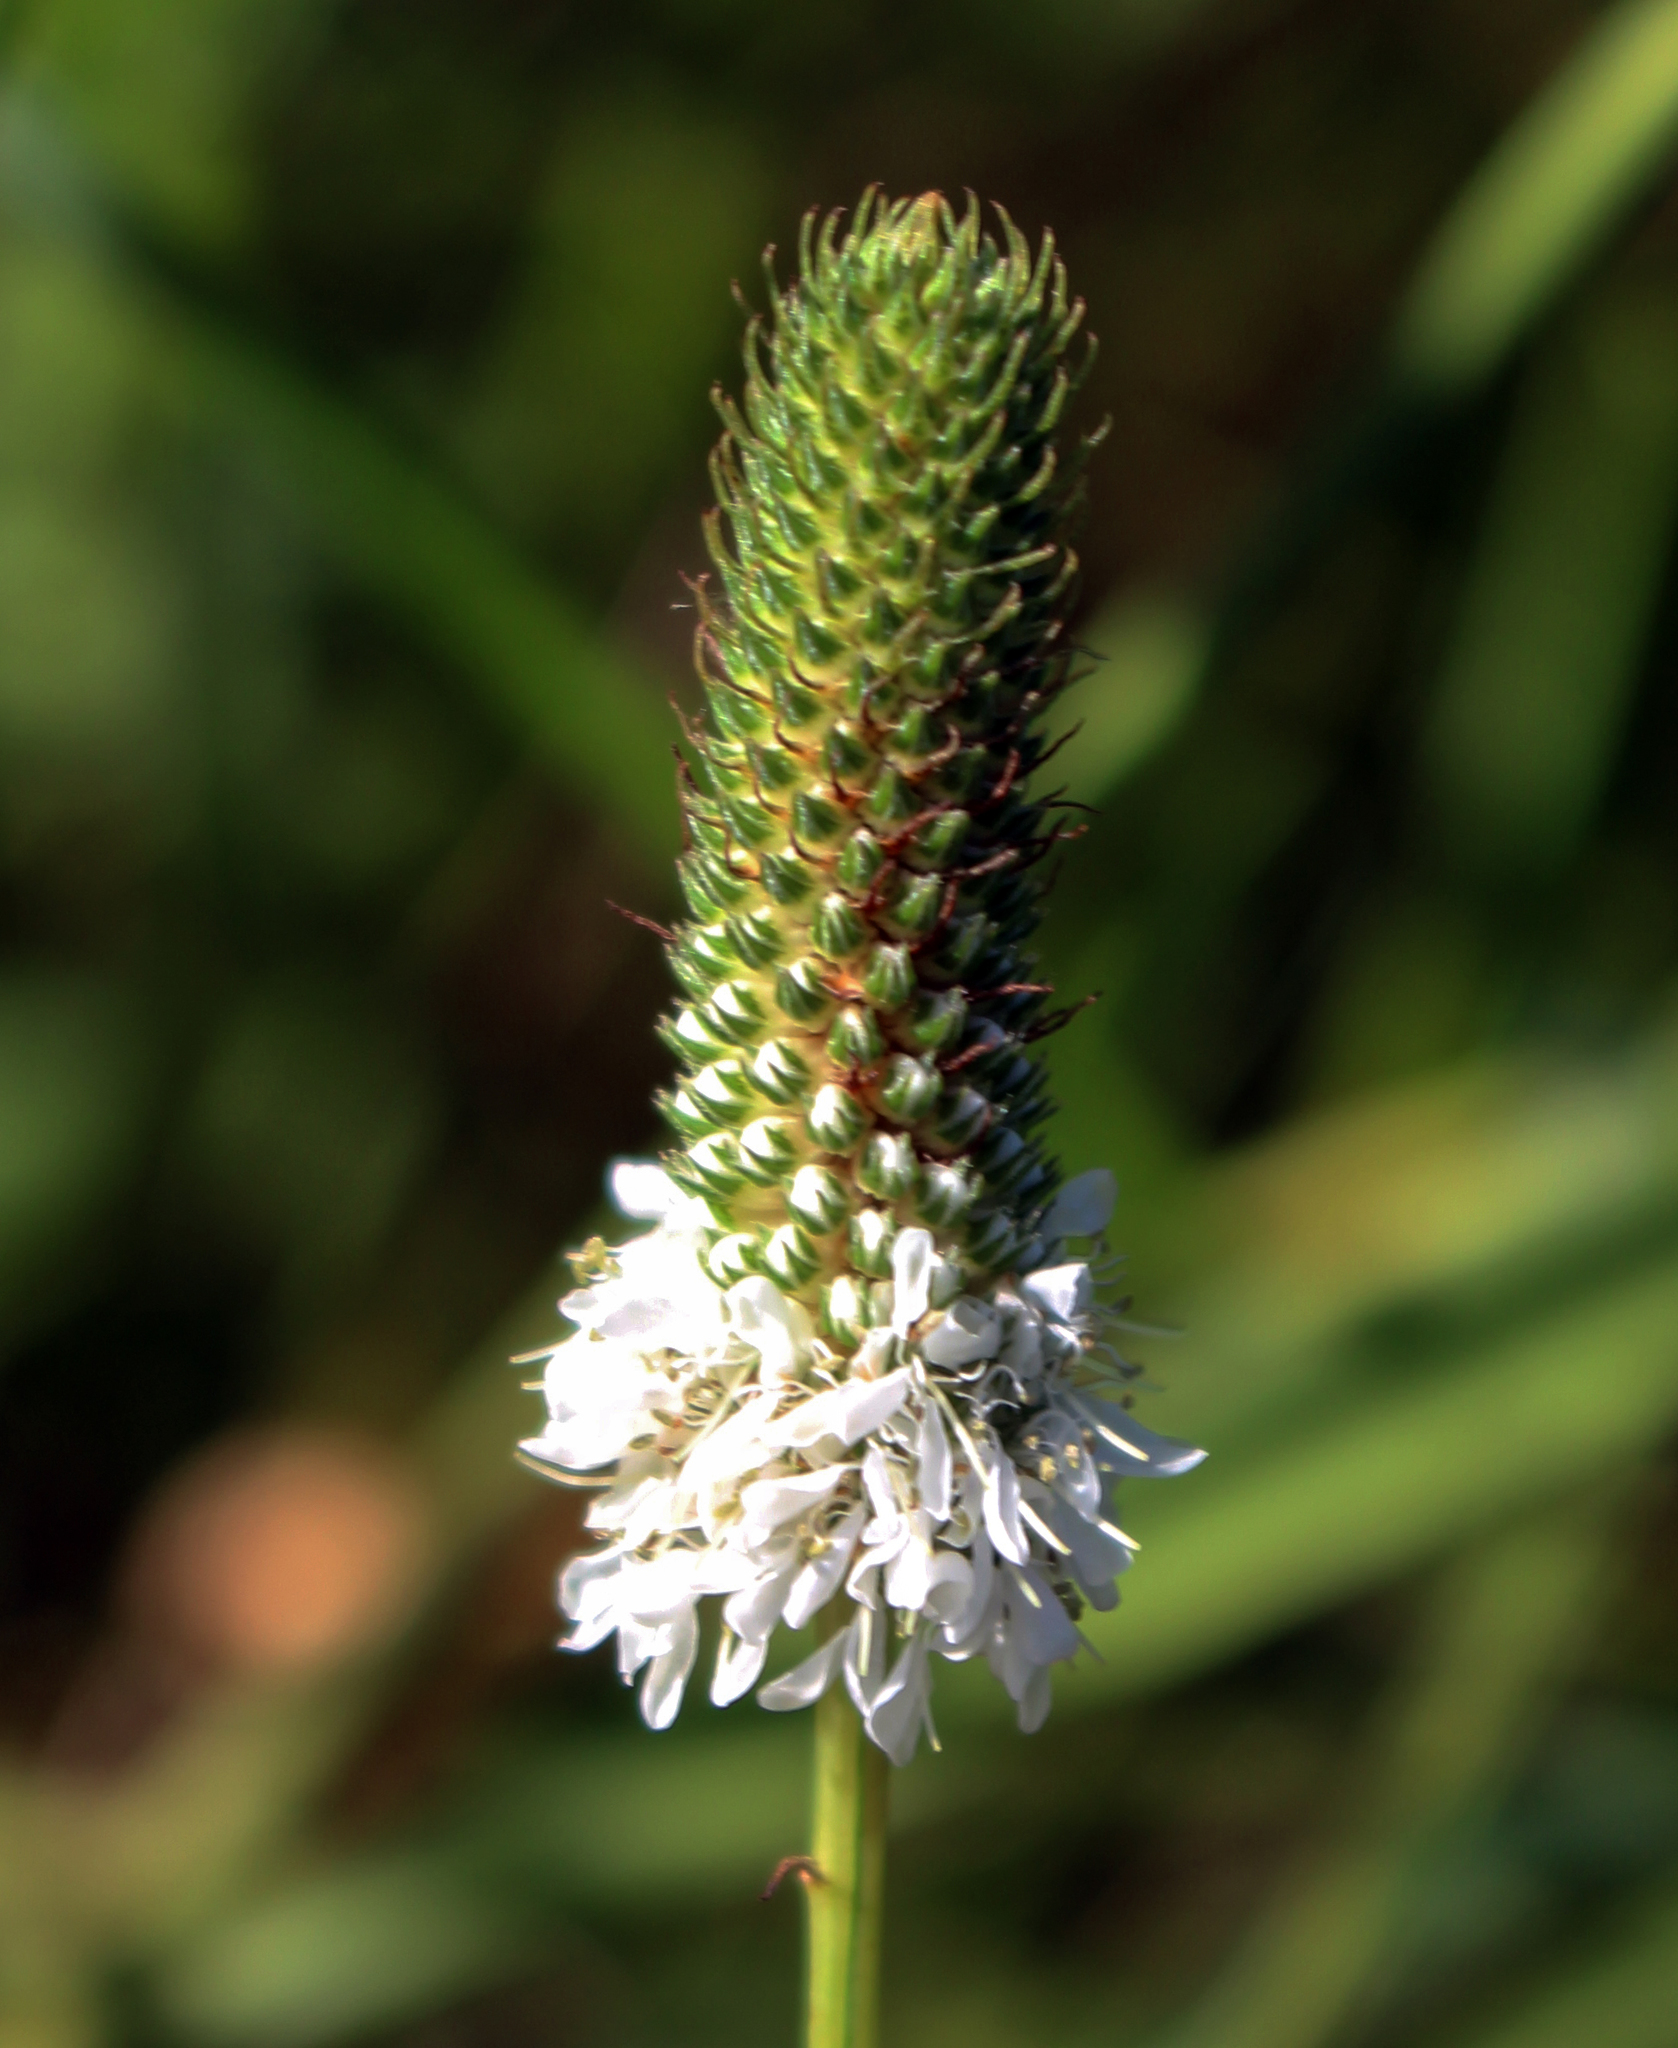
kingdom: Plantae
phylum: Tracheophyta
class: Magnoliopsida
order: Fabales
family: Fabaceae
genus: Dalea
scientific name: Dalea candida
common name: White prairie-clover
